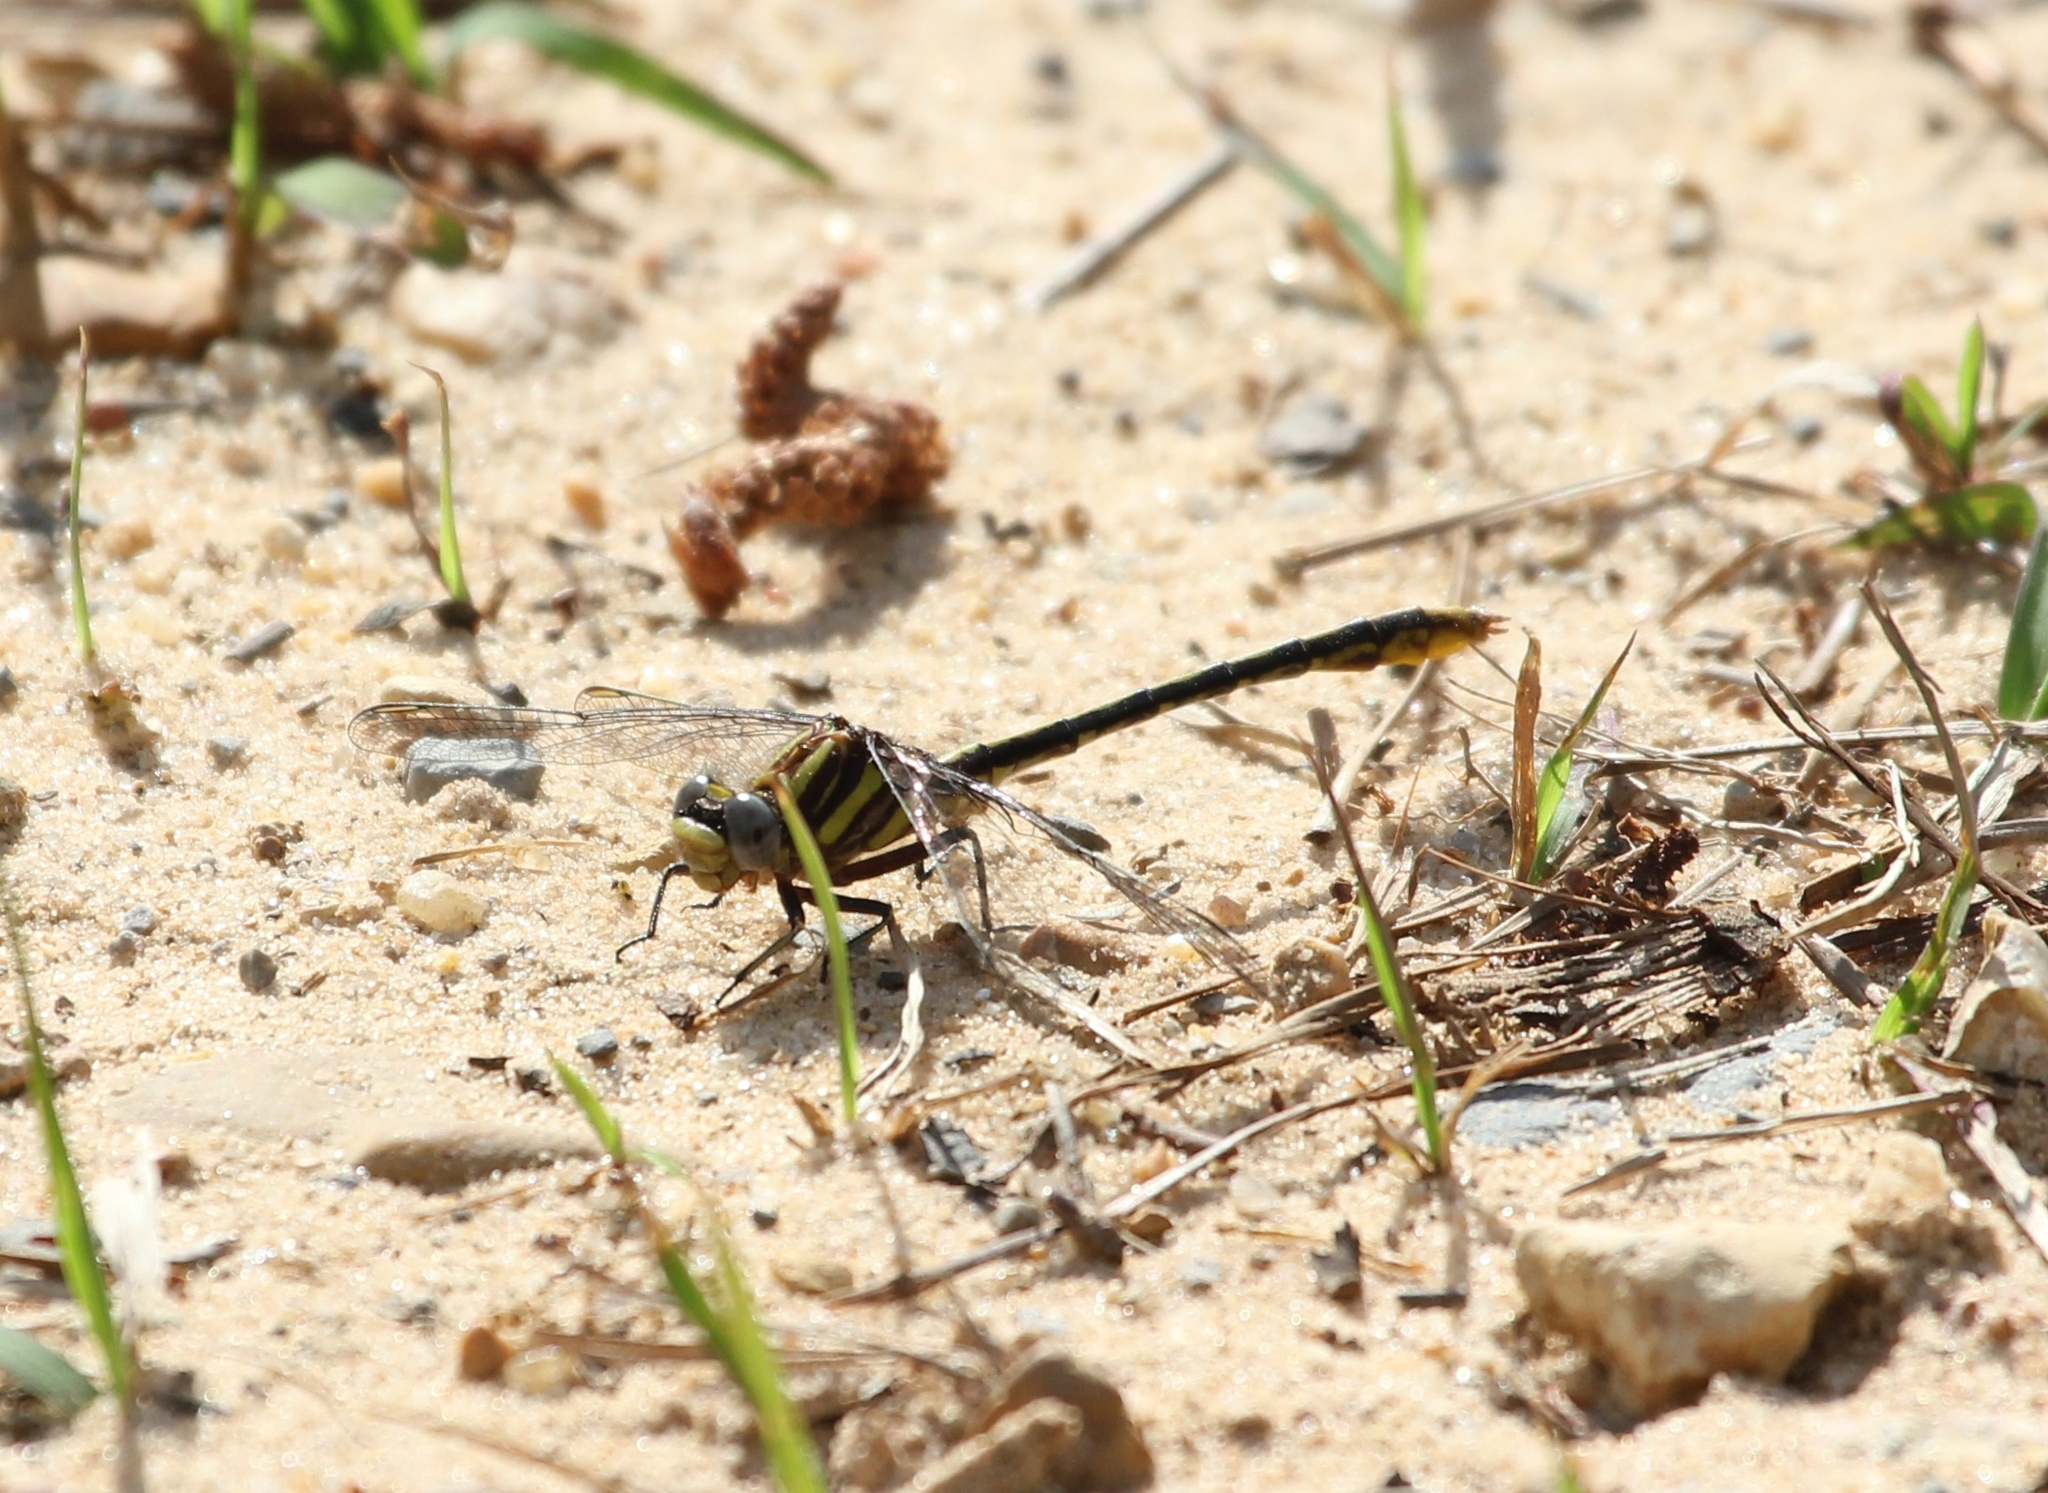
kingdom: Animalia
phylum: Arthropoda
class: Insecta
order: Odonata
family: Gomphidae
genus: Phanogomphus
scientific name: Phanogomphus exilis
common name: Lancet clubtail
